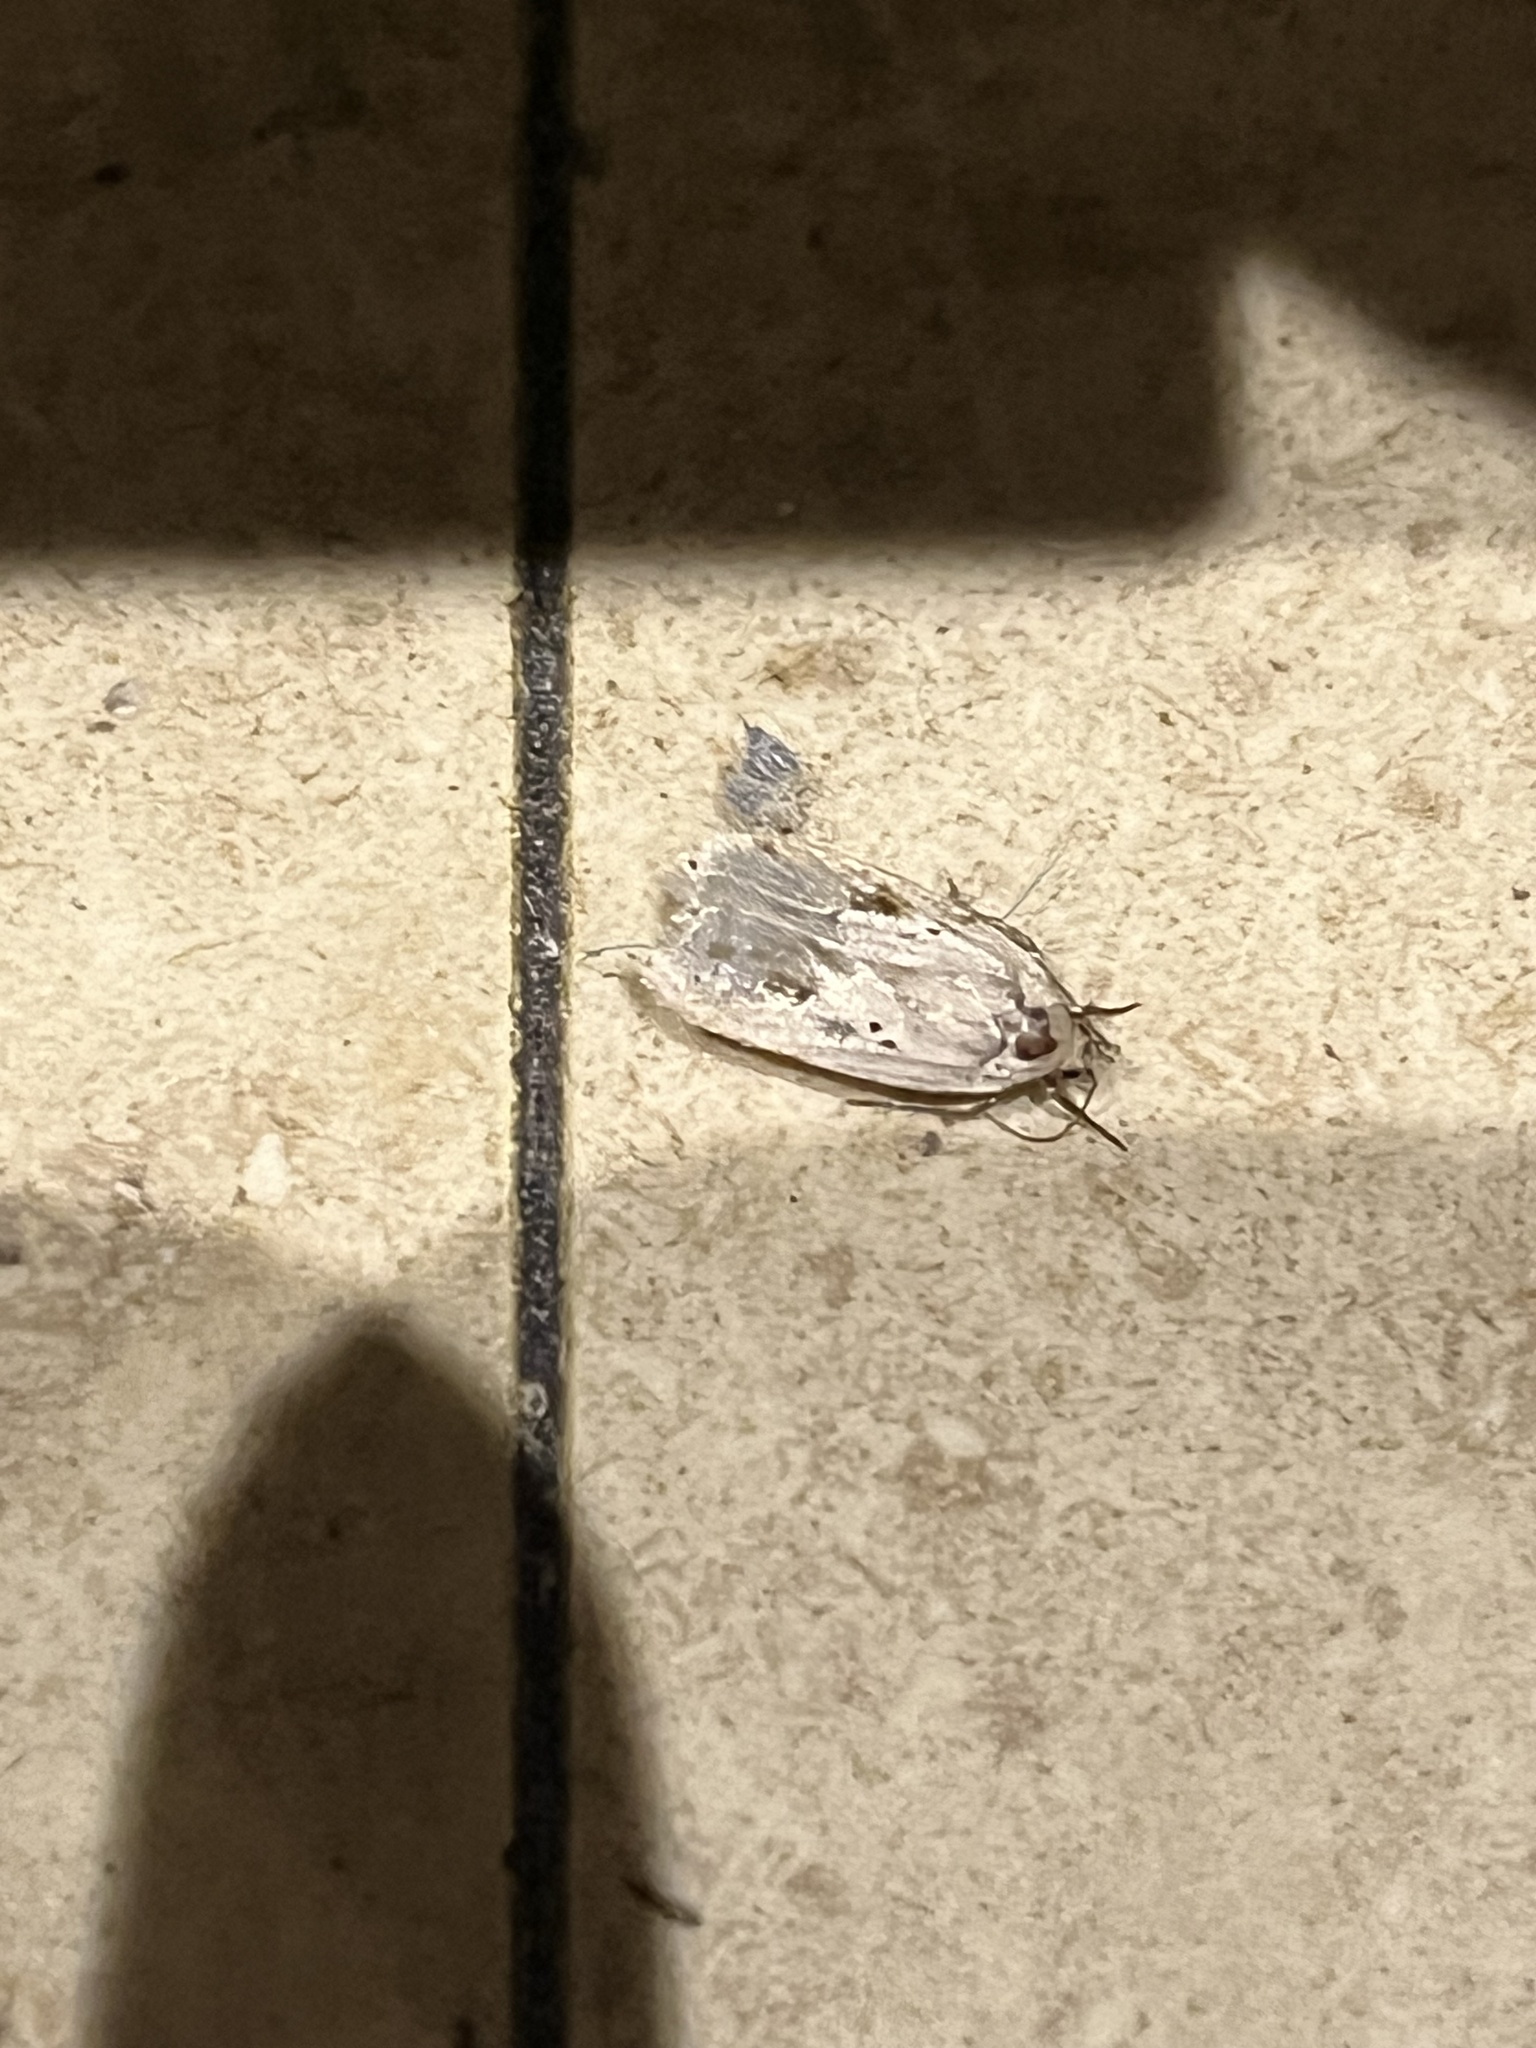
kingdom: Animalia
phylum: Arthropoda
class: Insecta
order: Lepidoptera
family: Depressariidae
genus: Agonopterix
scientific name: Agonopterix arenella
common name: Brindled flat-body
